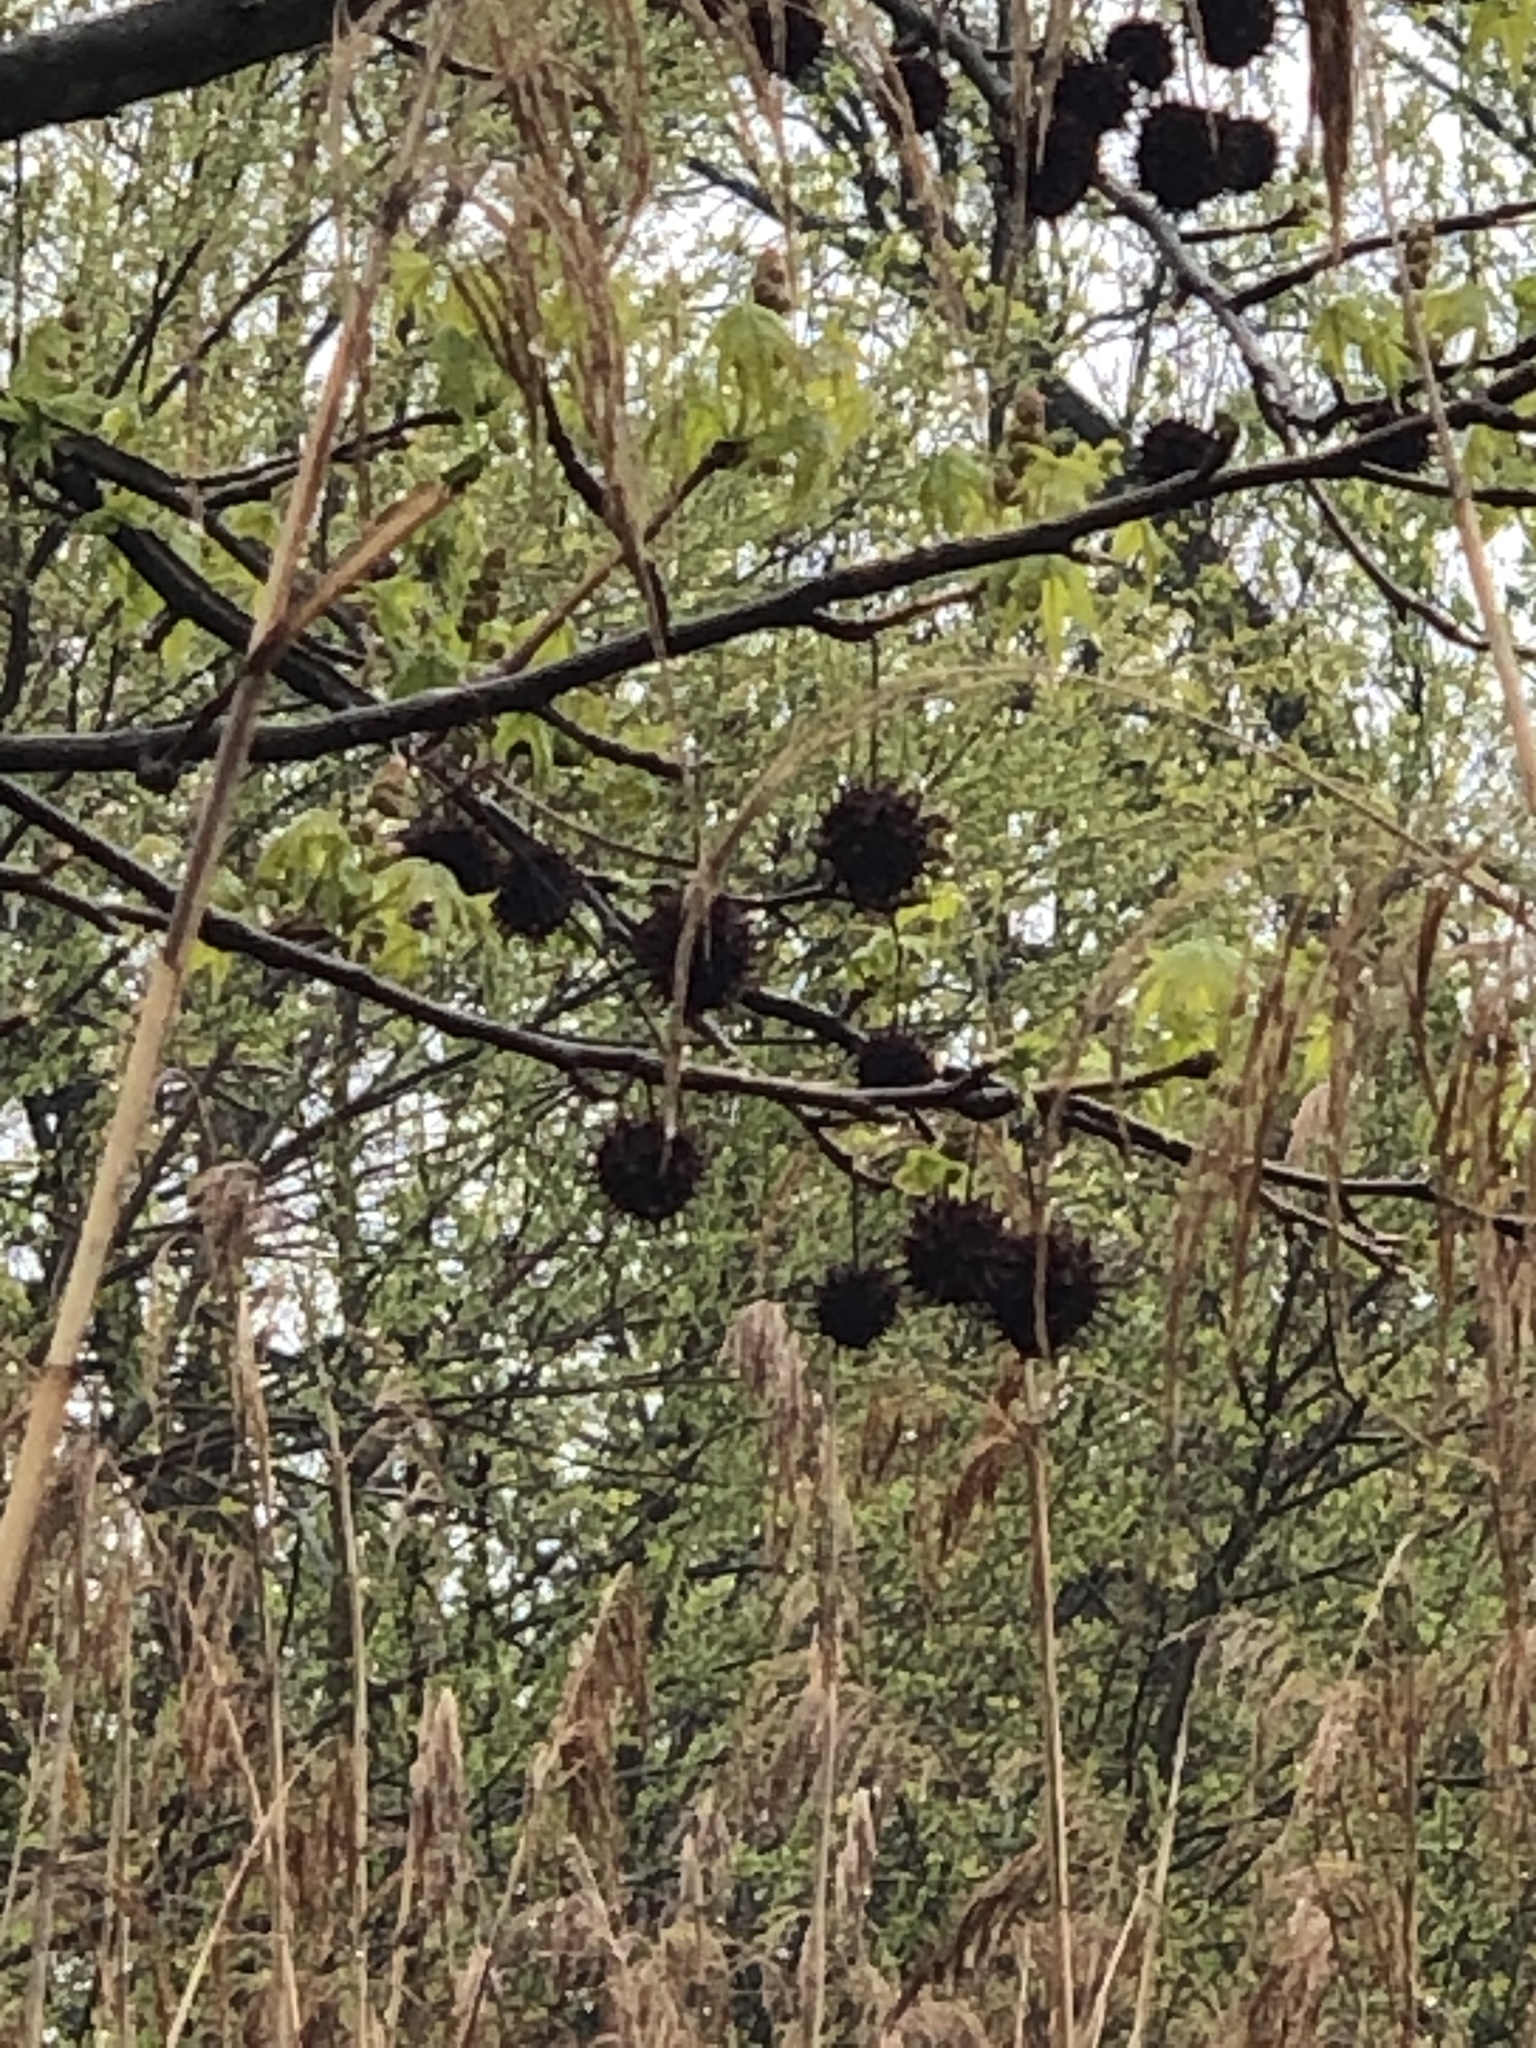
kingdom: Plantae
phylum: Tracheophyta
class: Magnoliopsida
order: Saxifragales
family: Altingiaceae
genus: Liquidambar
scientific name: Liquidambar styraciflua
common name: Sweet gum
